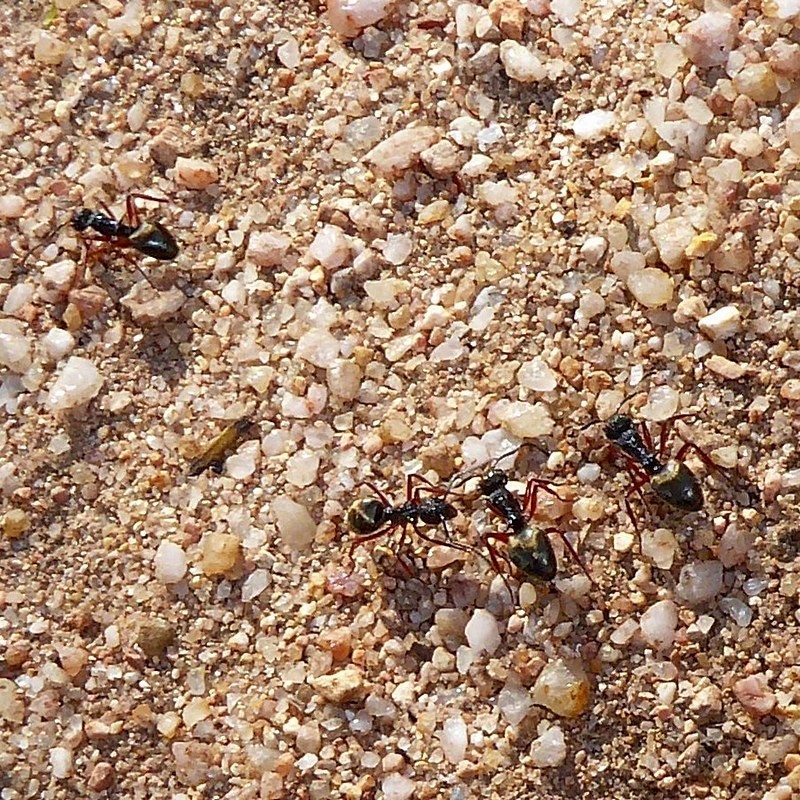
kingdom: Animalia
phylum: Arthropoda
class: Insecta
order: Hymenoptera
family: Formicidae
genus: Dolichoderus
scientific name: Dolichoderus doriae
